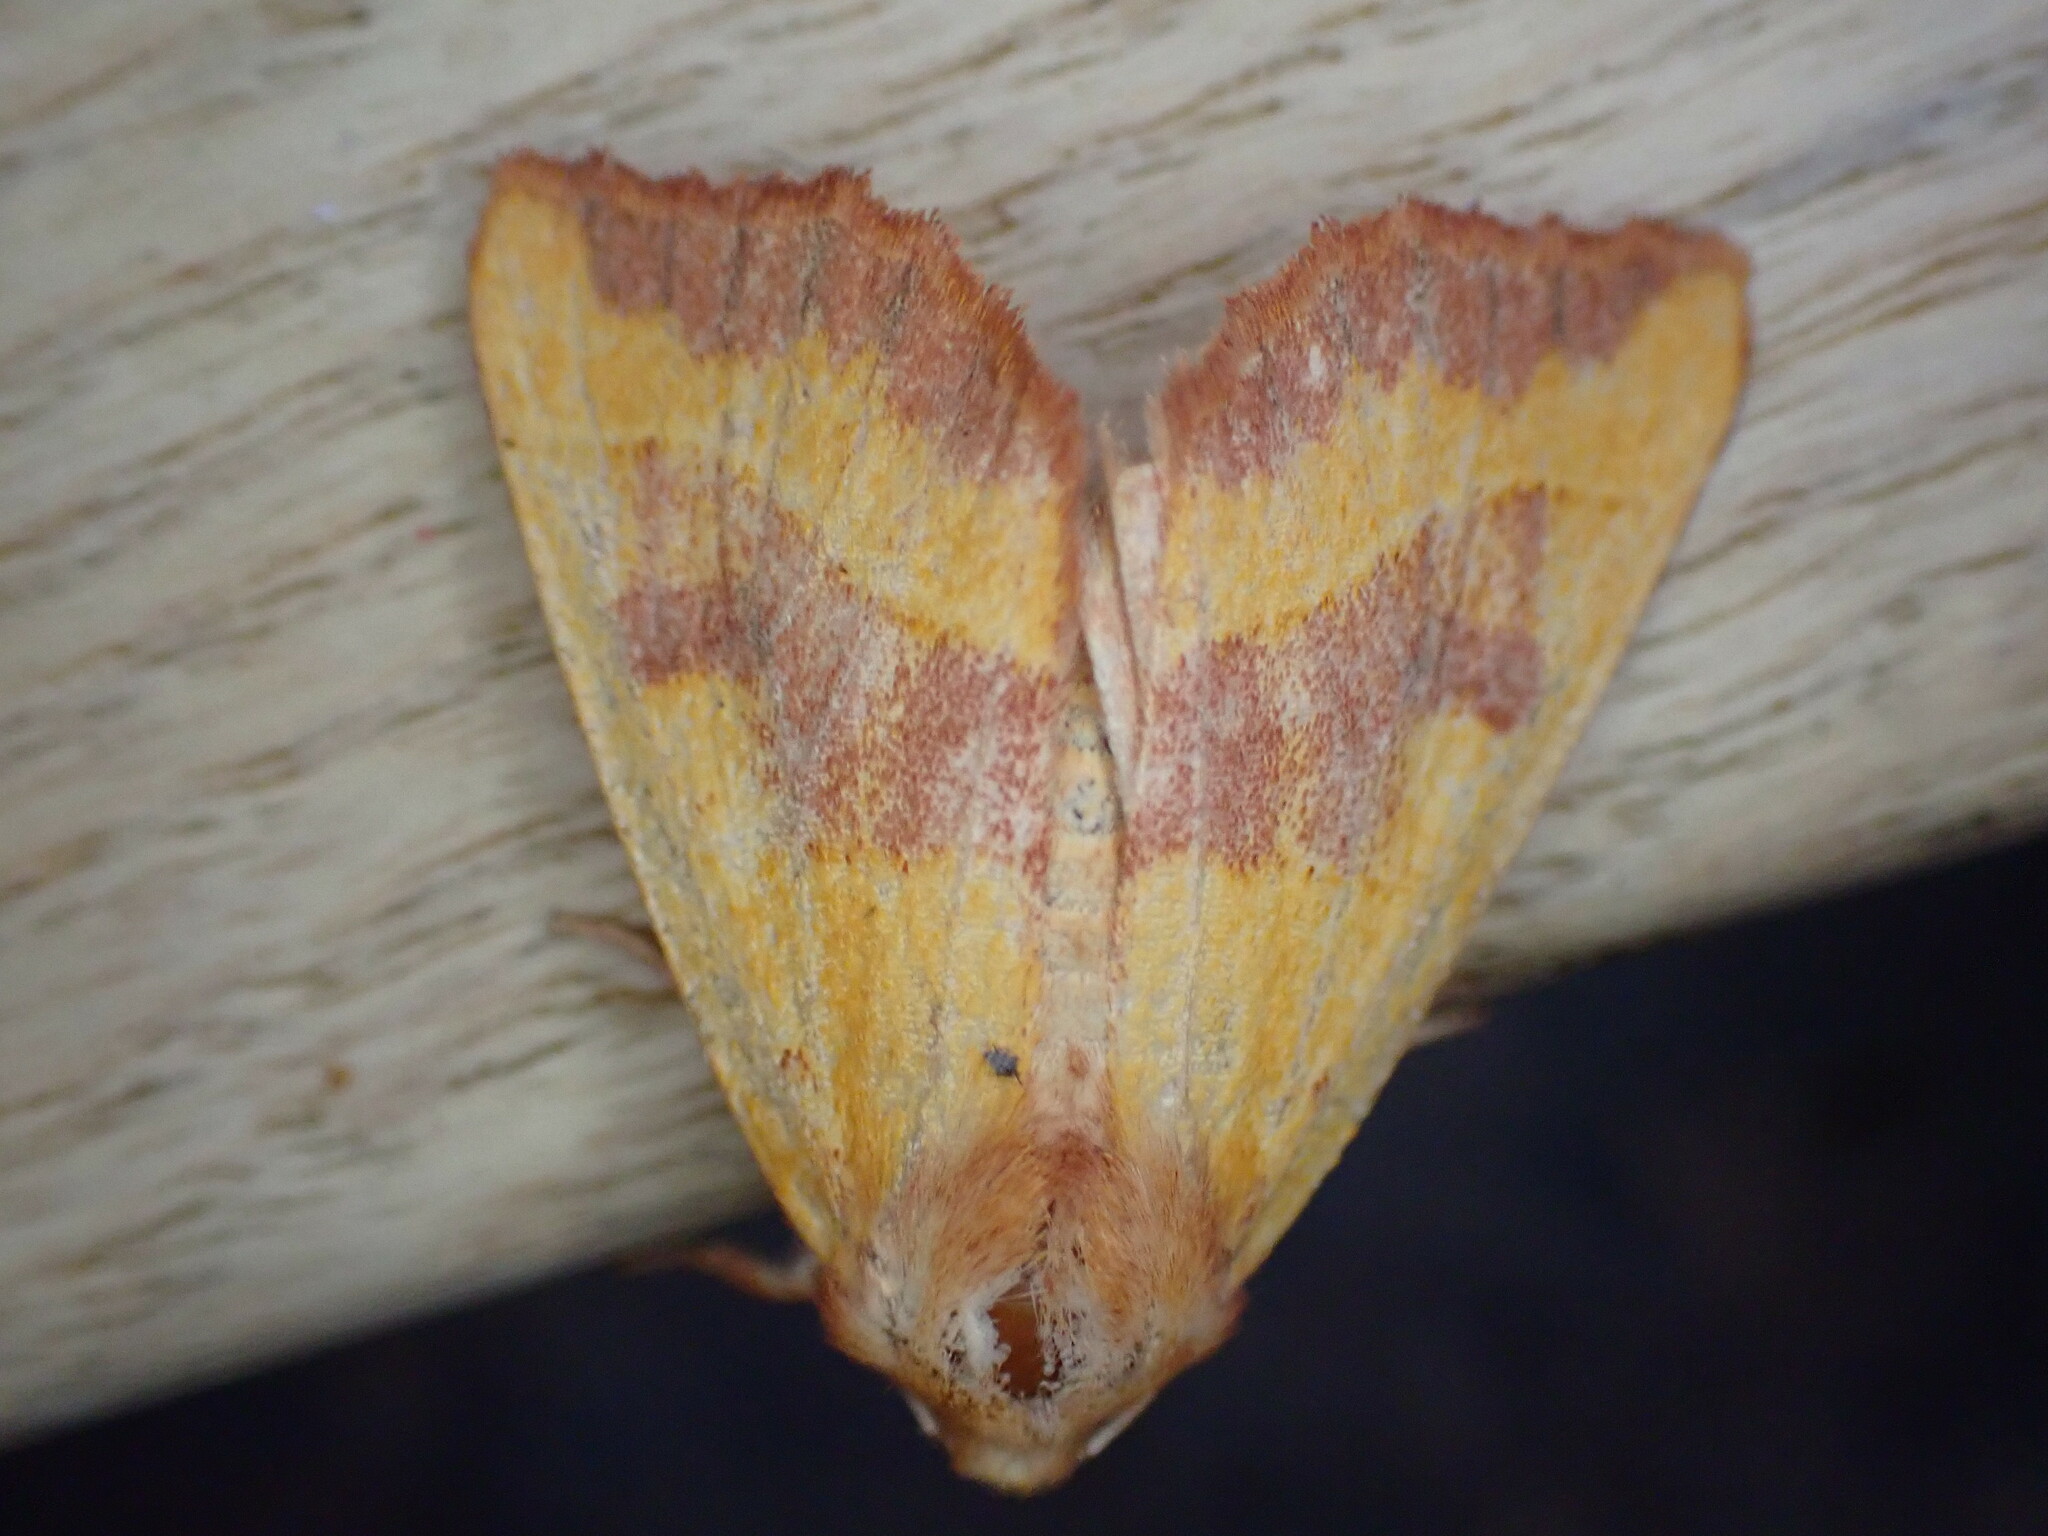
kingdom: Animalia
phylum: Arthropoda
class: Insecta
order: Lepidoptera
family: Noctuidae
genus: Atethmia
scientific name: Atethmia centrago
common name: Centre-barred sallow
